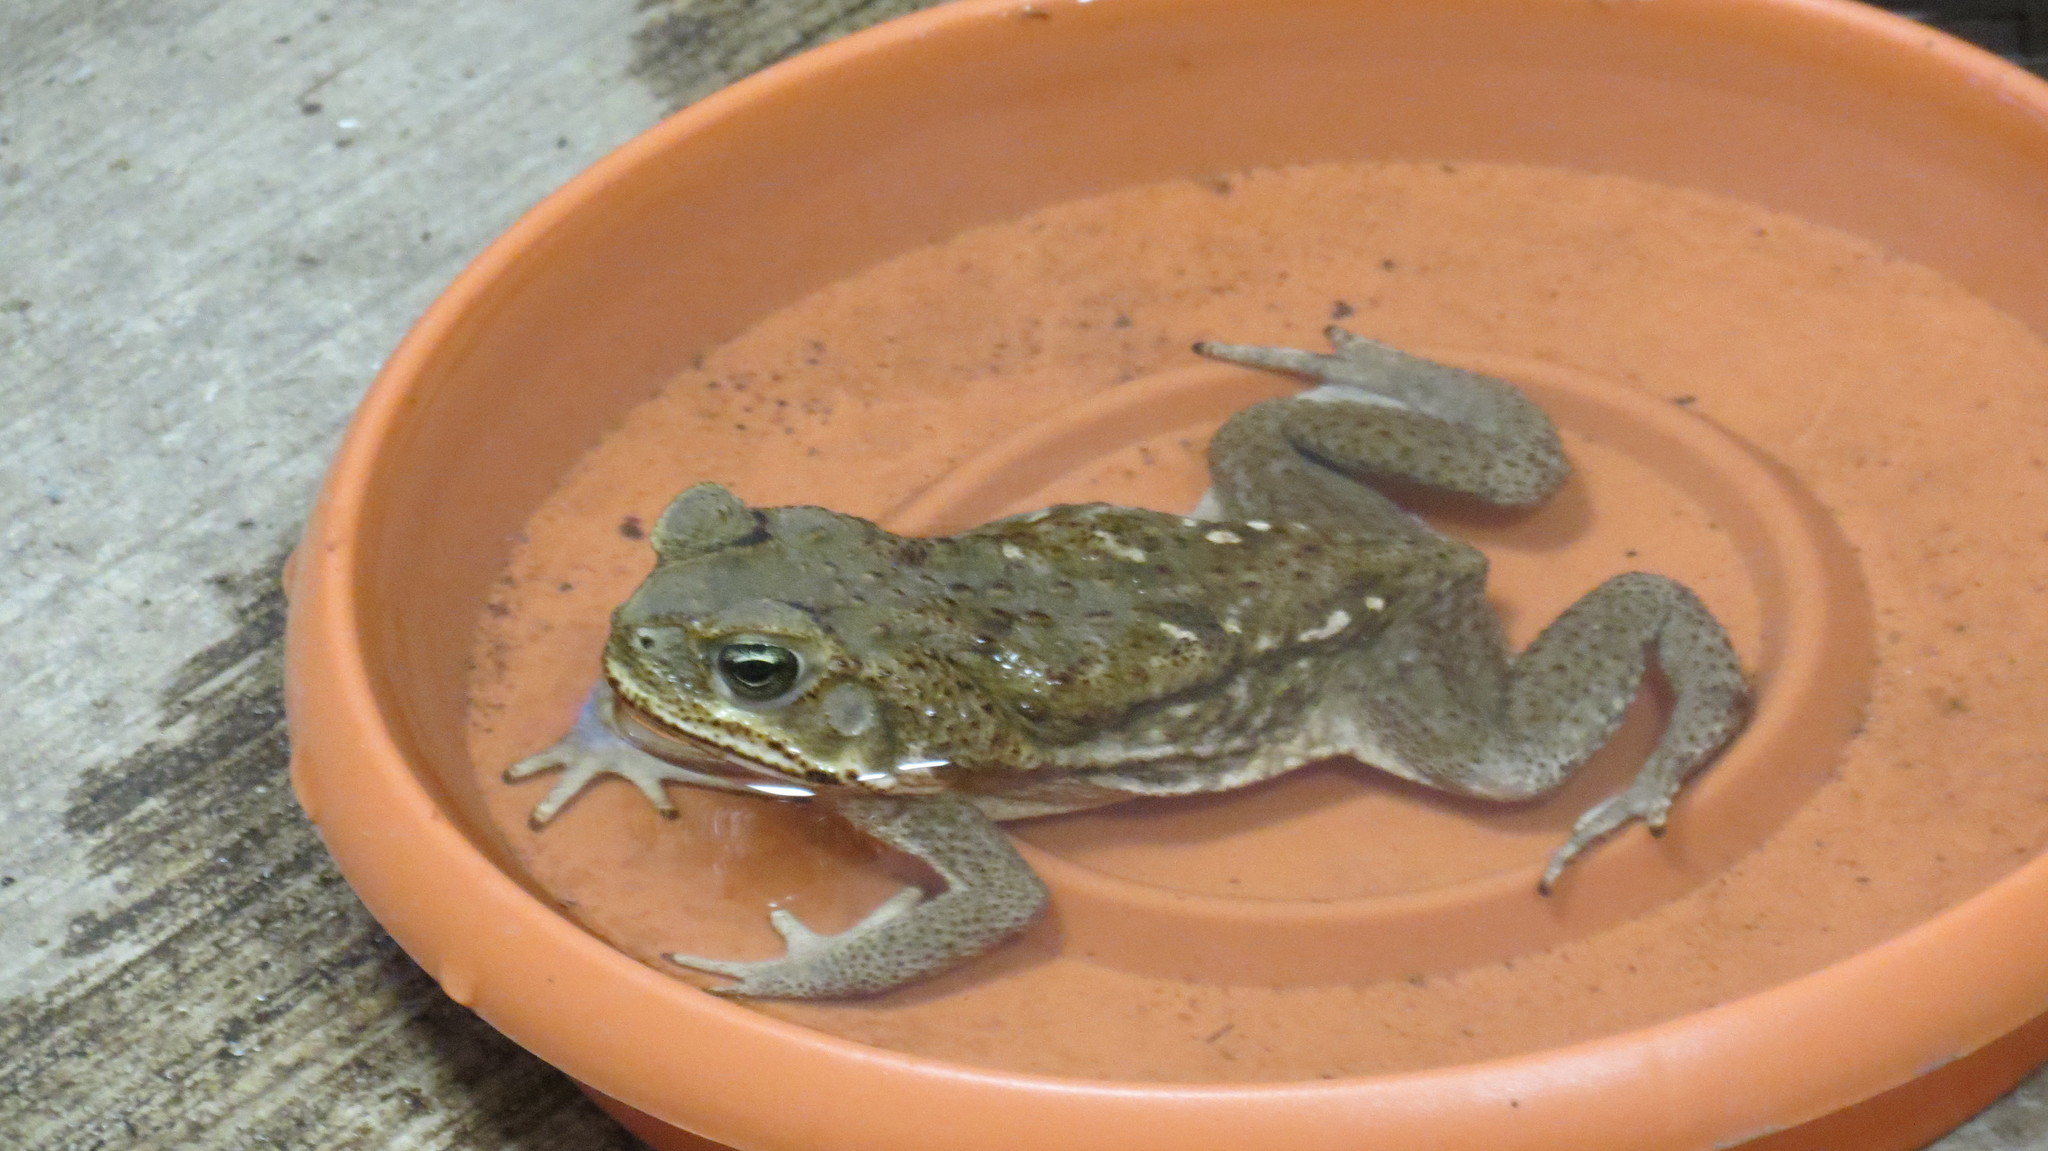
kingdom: Animalia
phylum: Chordata
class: Amphibia
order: Anura
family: Bufonidae
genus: Rhinella
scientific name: Rhinella horribilis
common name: Mesoamerican cane toad
